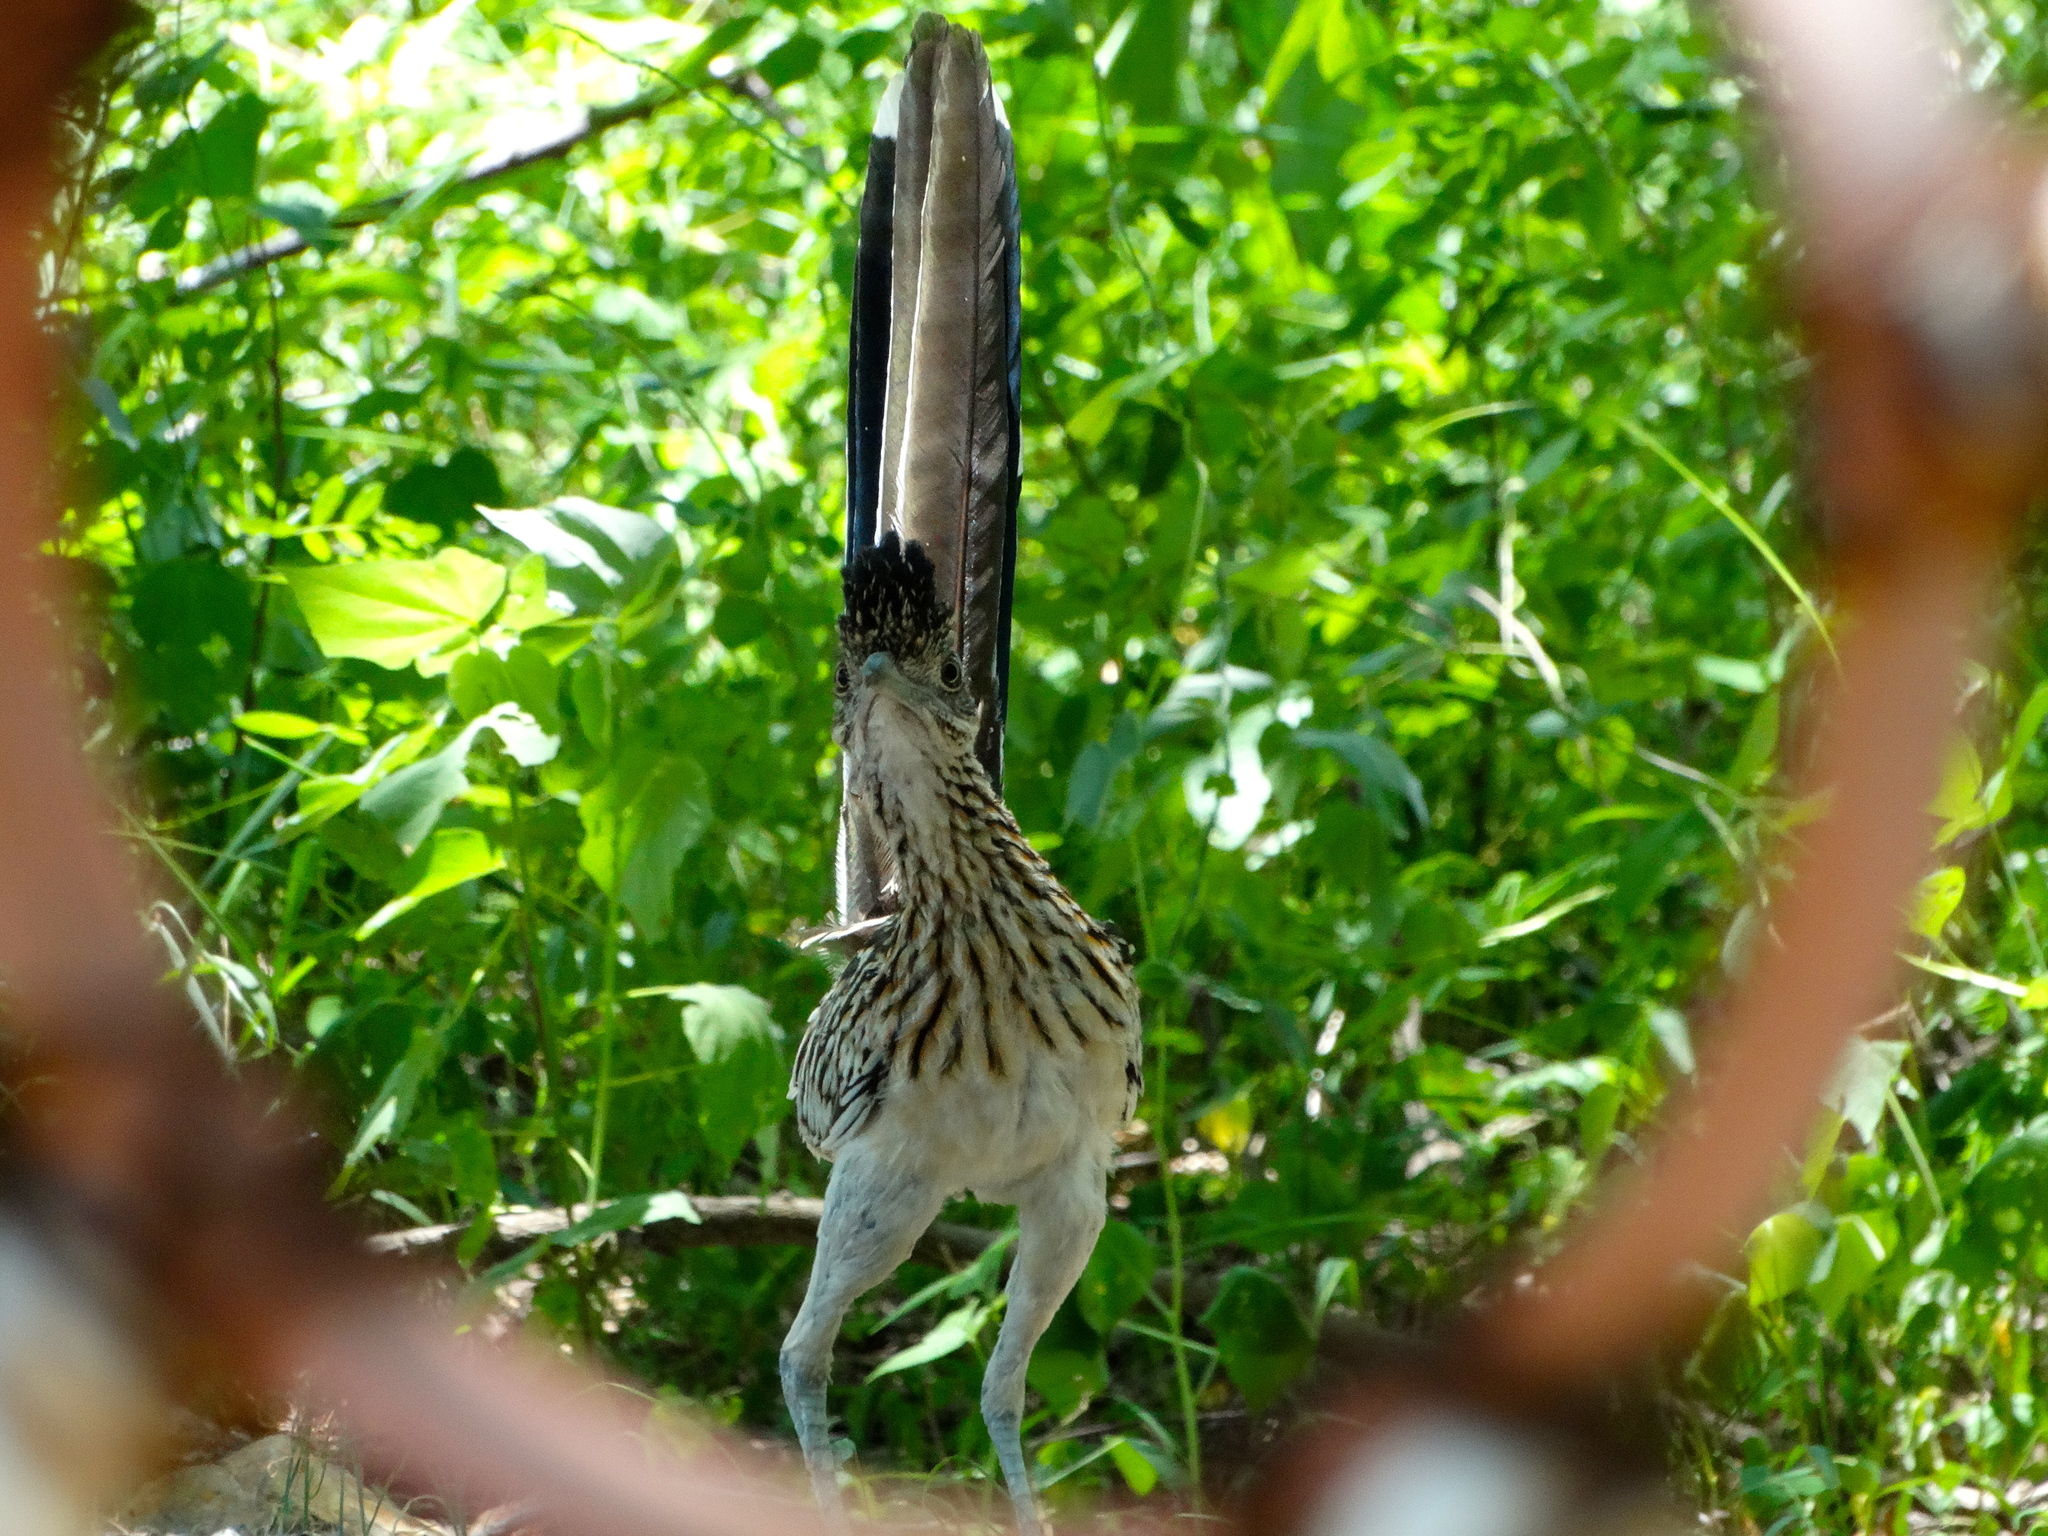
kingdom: Animalia
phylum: Chordata
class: Aves
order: Cuculiformes
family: Cuculidae
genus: Geococcyx
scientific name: Geococcyx californianus
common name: Greater roadrunner
